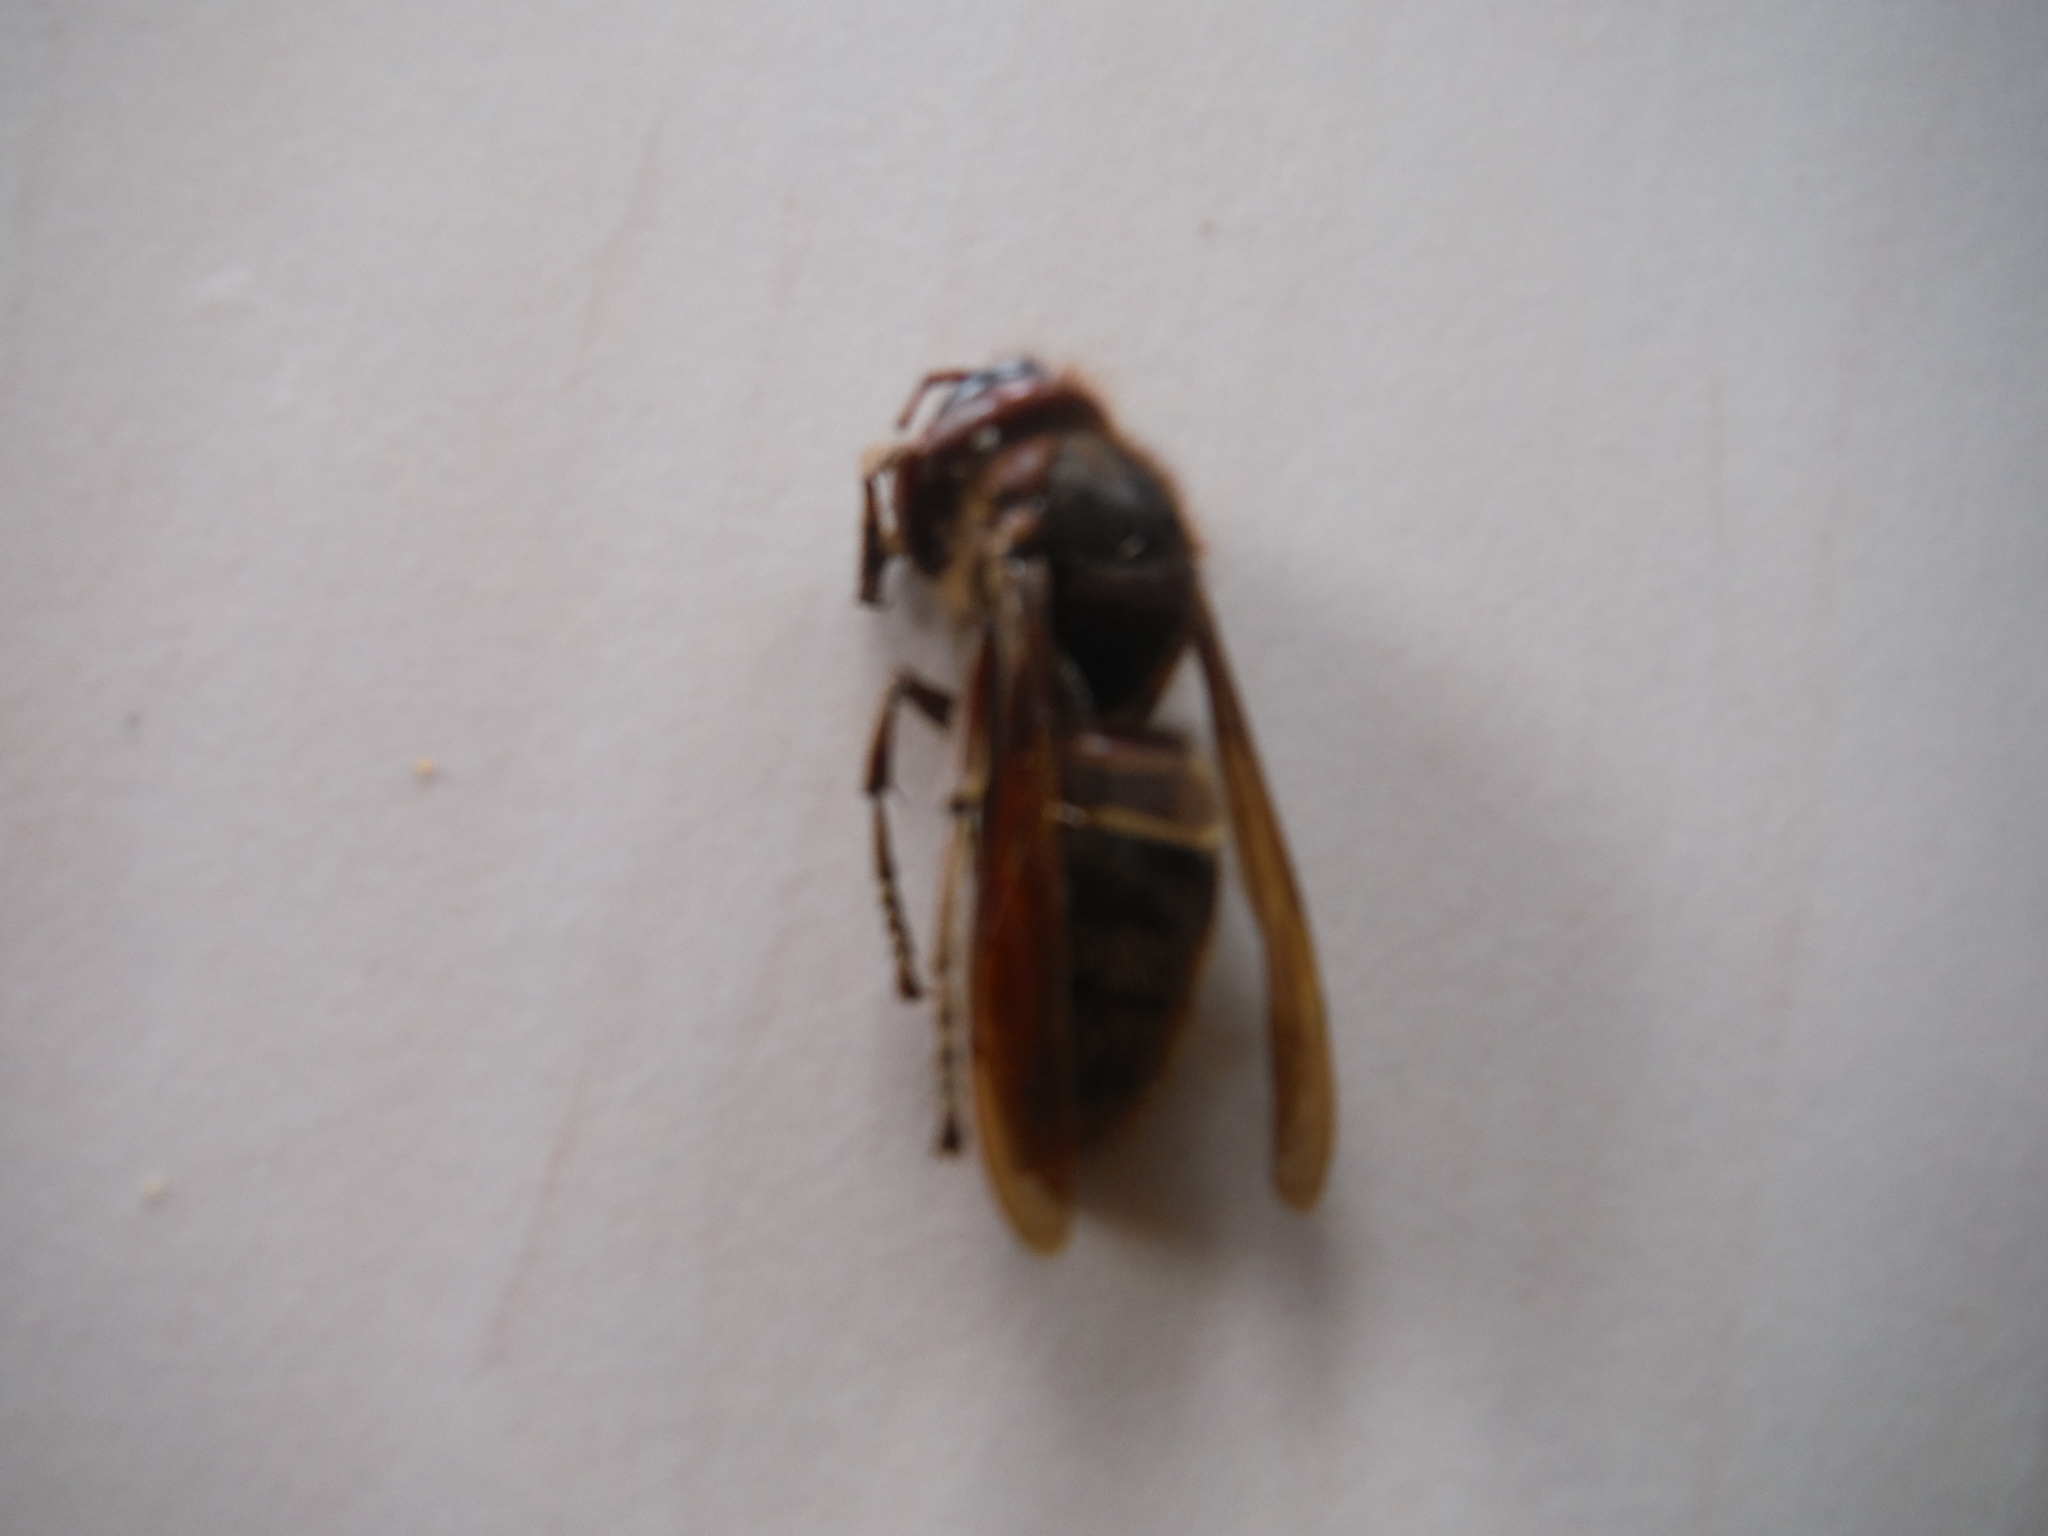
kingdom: Animalia
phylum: Arthropoda
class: Insecta
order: Hymenoptera
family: Vespidae
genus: Vespa
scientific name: Vespa crabro
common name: Hornet
